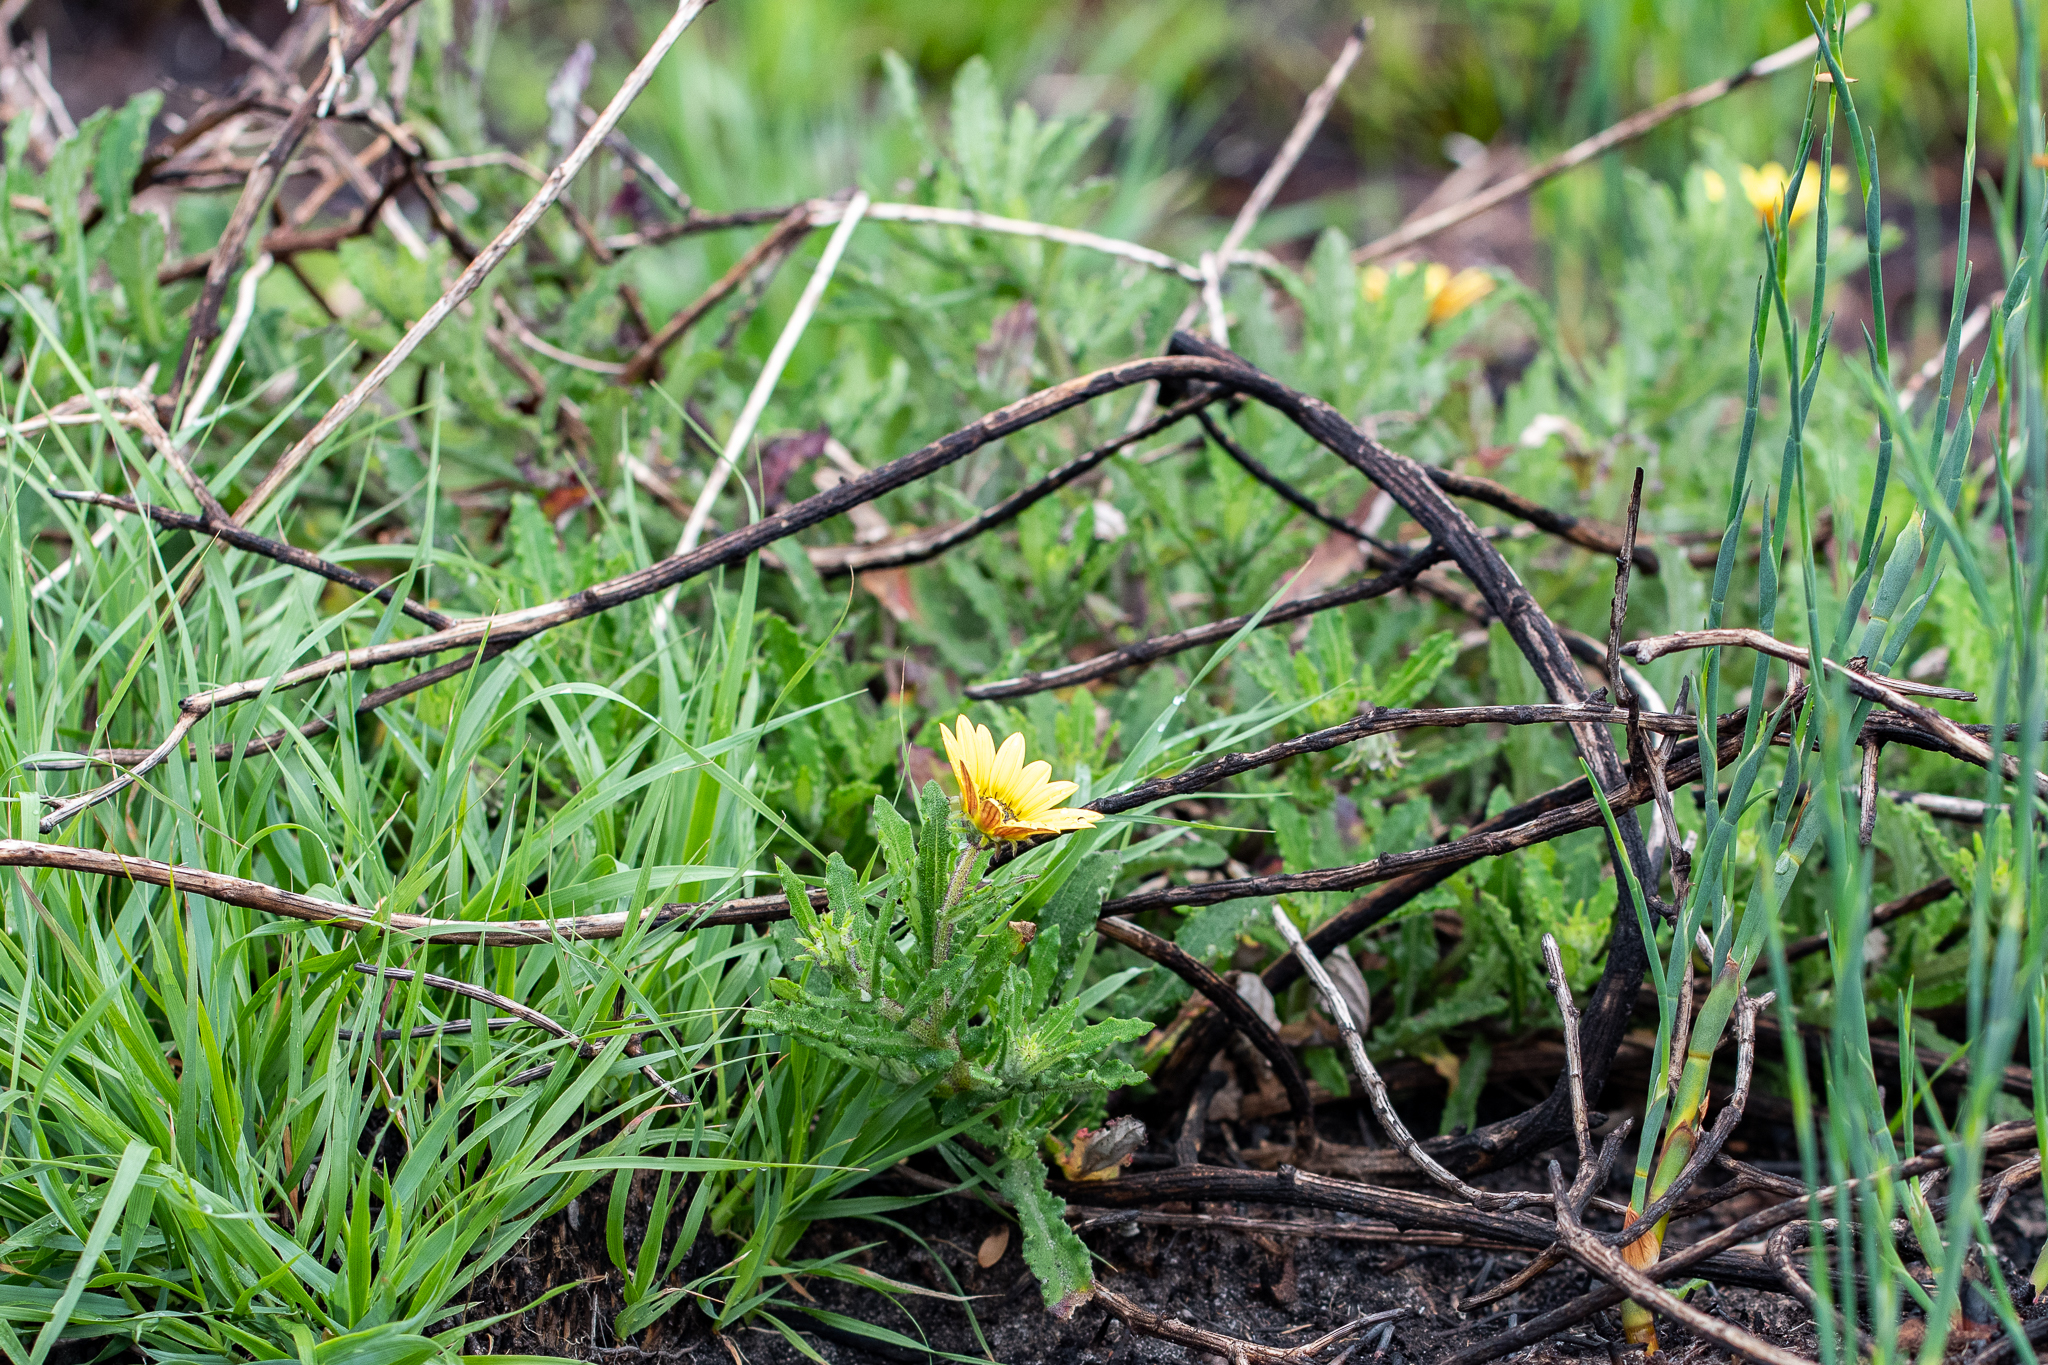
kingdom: Plantae
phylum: Tracheophyta
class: Magnoliopsida
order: Asterales
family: Asteraceae
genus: Arctotis
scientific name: Arctotis scabra
